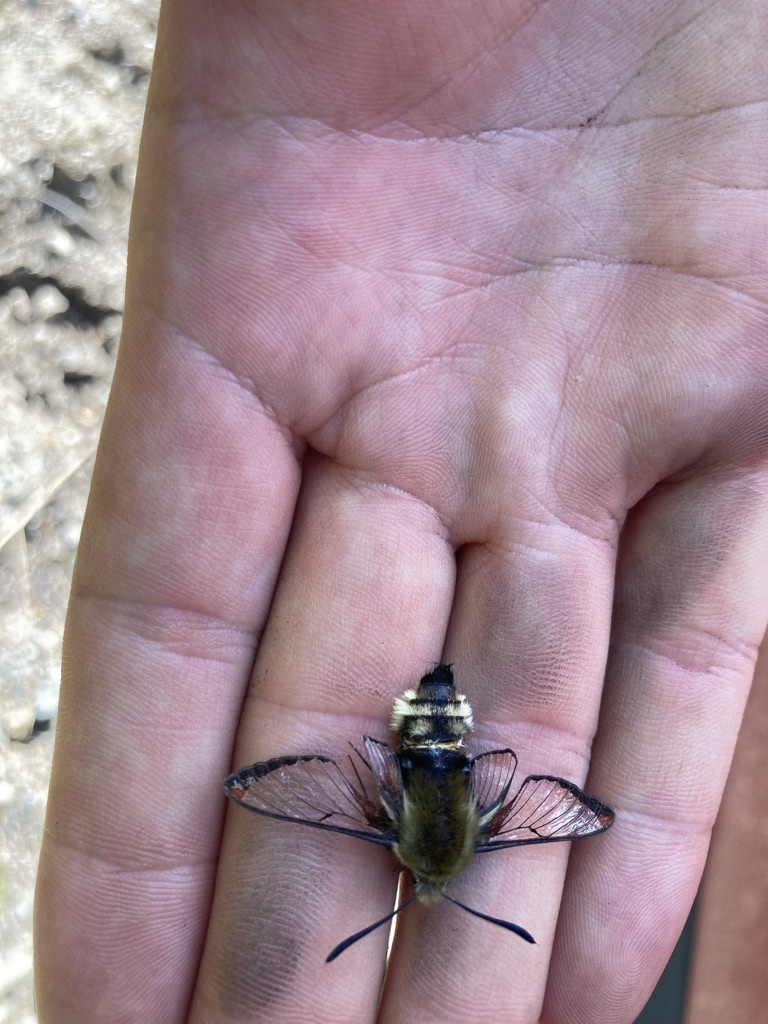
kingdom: Animalia
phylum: Arthropoda
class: Insecta
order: Lepidoptera
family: Sphingidae
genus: Hemaris
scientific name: Hemaris thetis
